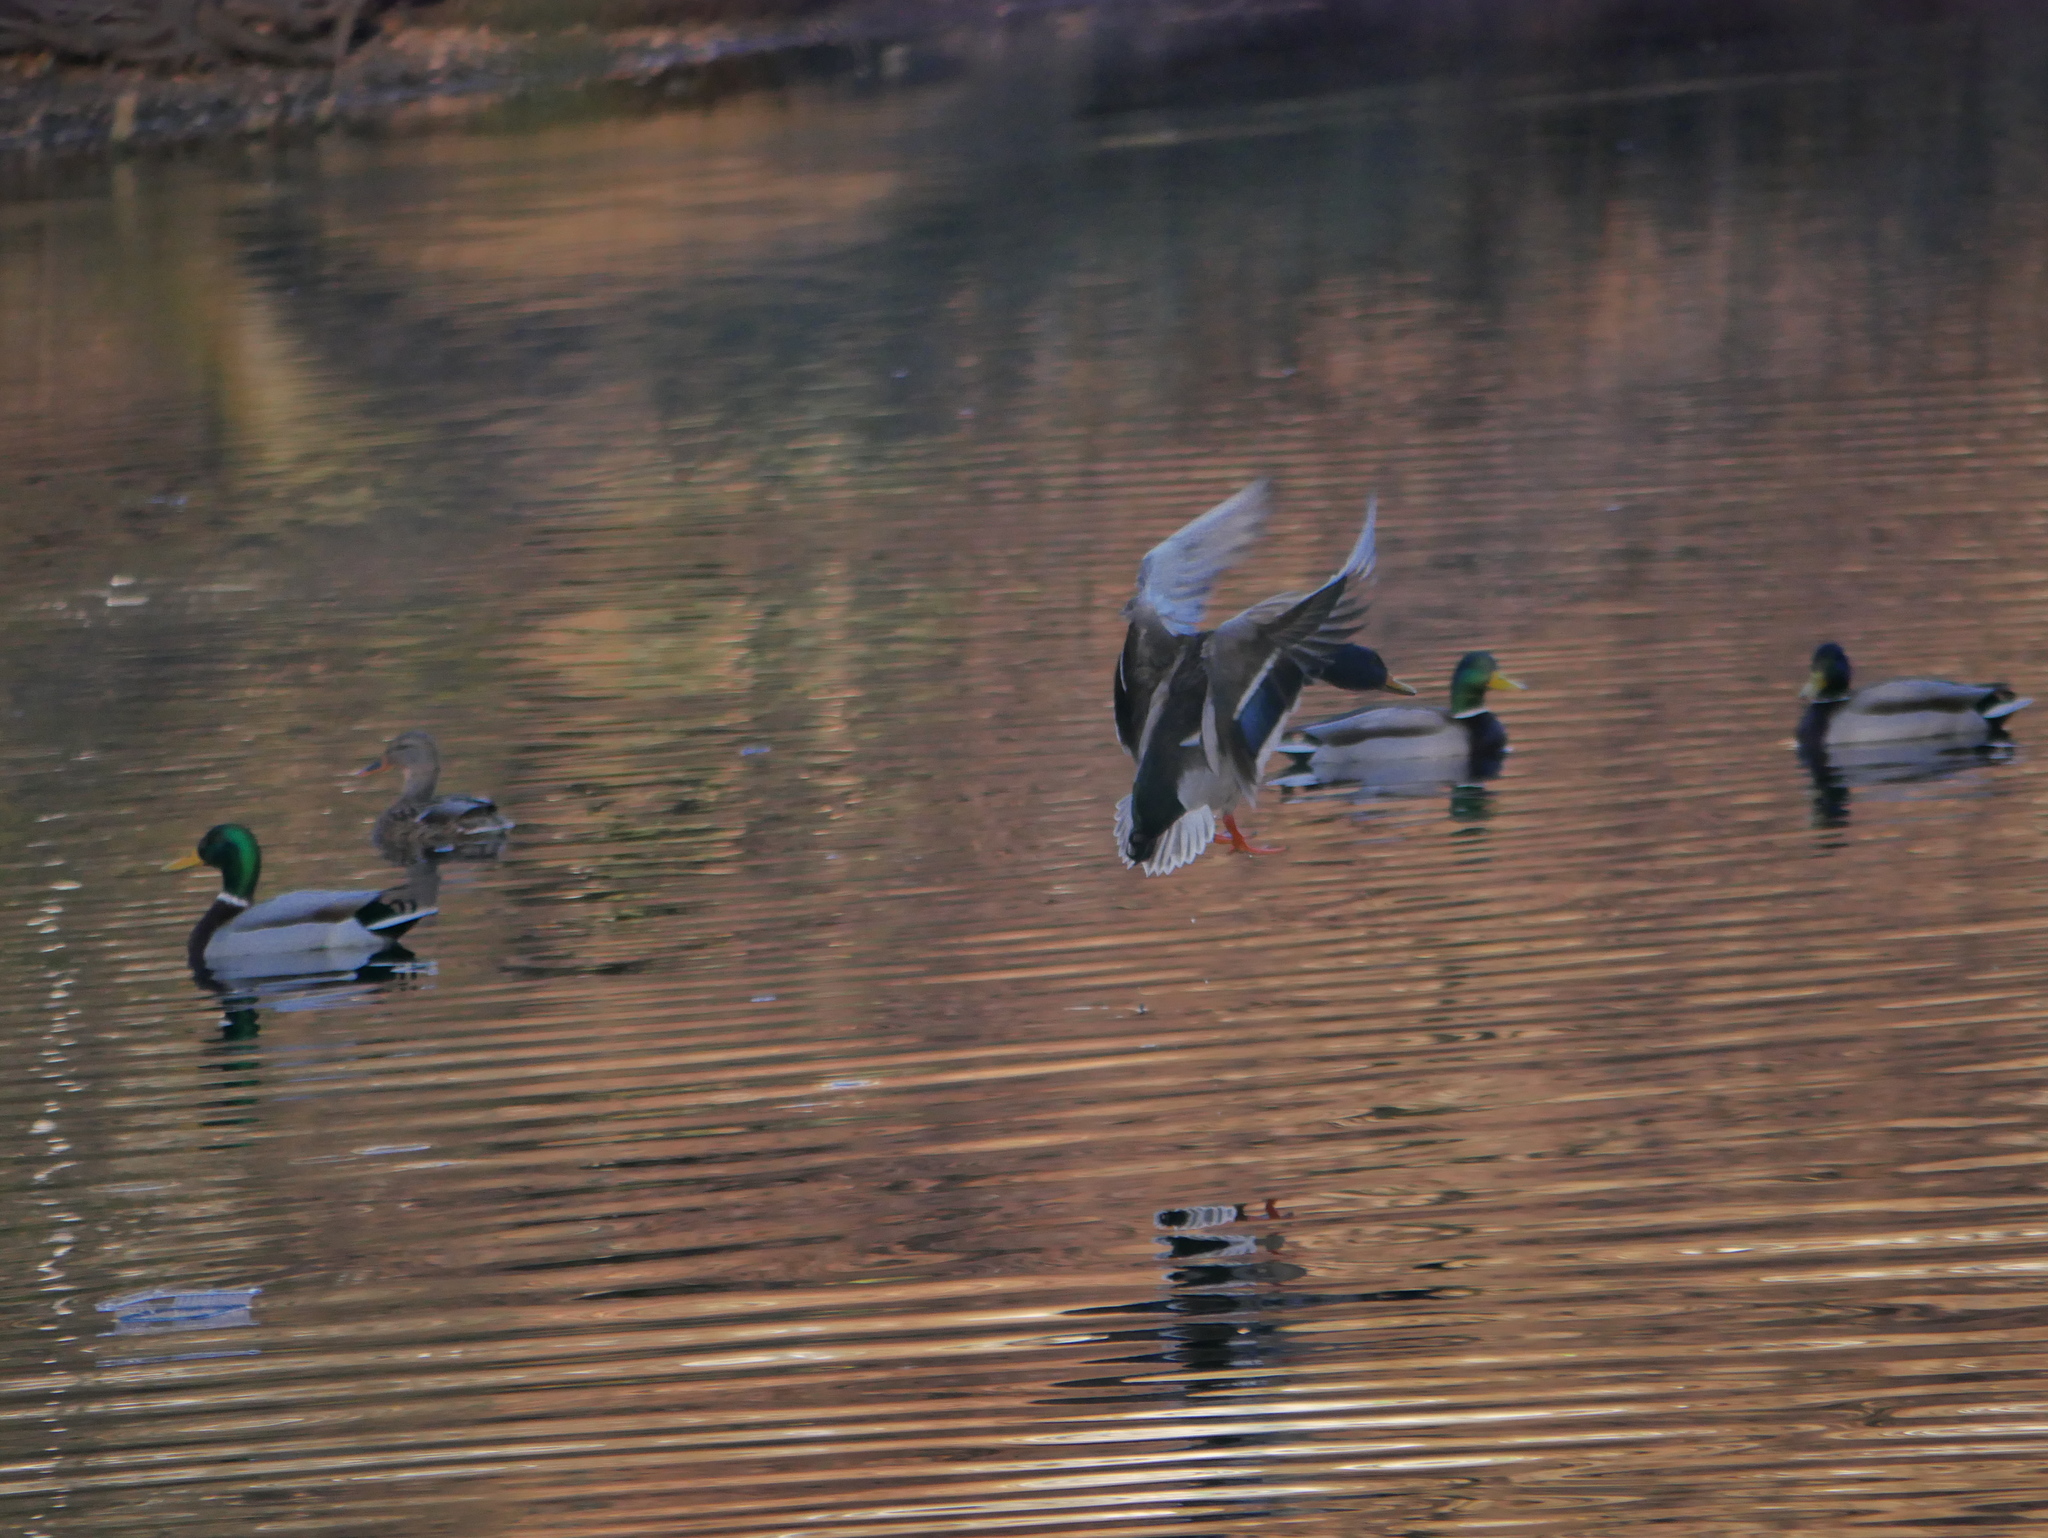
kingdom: Animalia
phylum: Chordata
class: Aves
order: Anseriformes
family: Anatidae
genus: Anas
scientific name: Anas platyrhynchos
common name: Mallard
